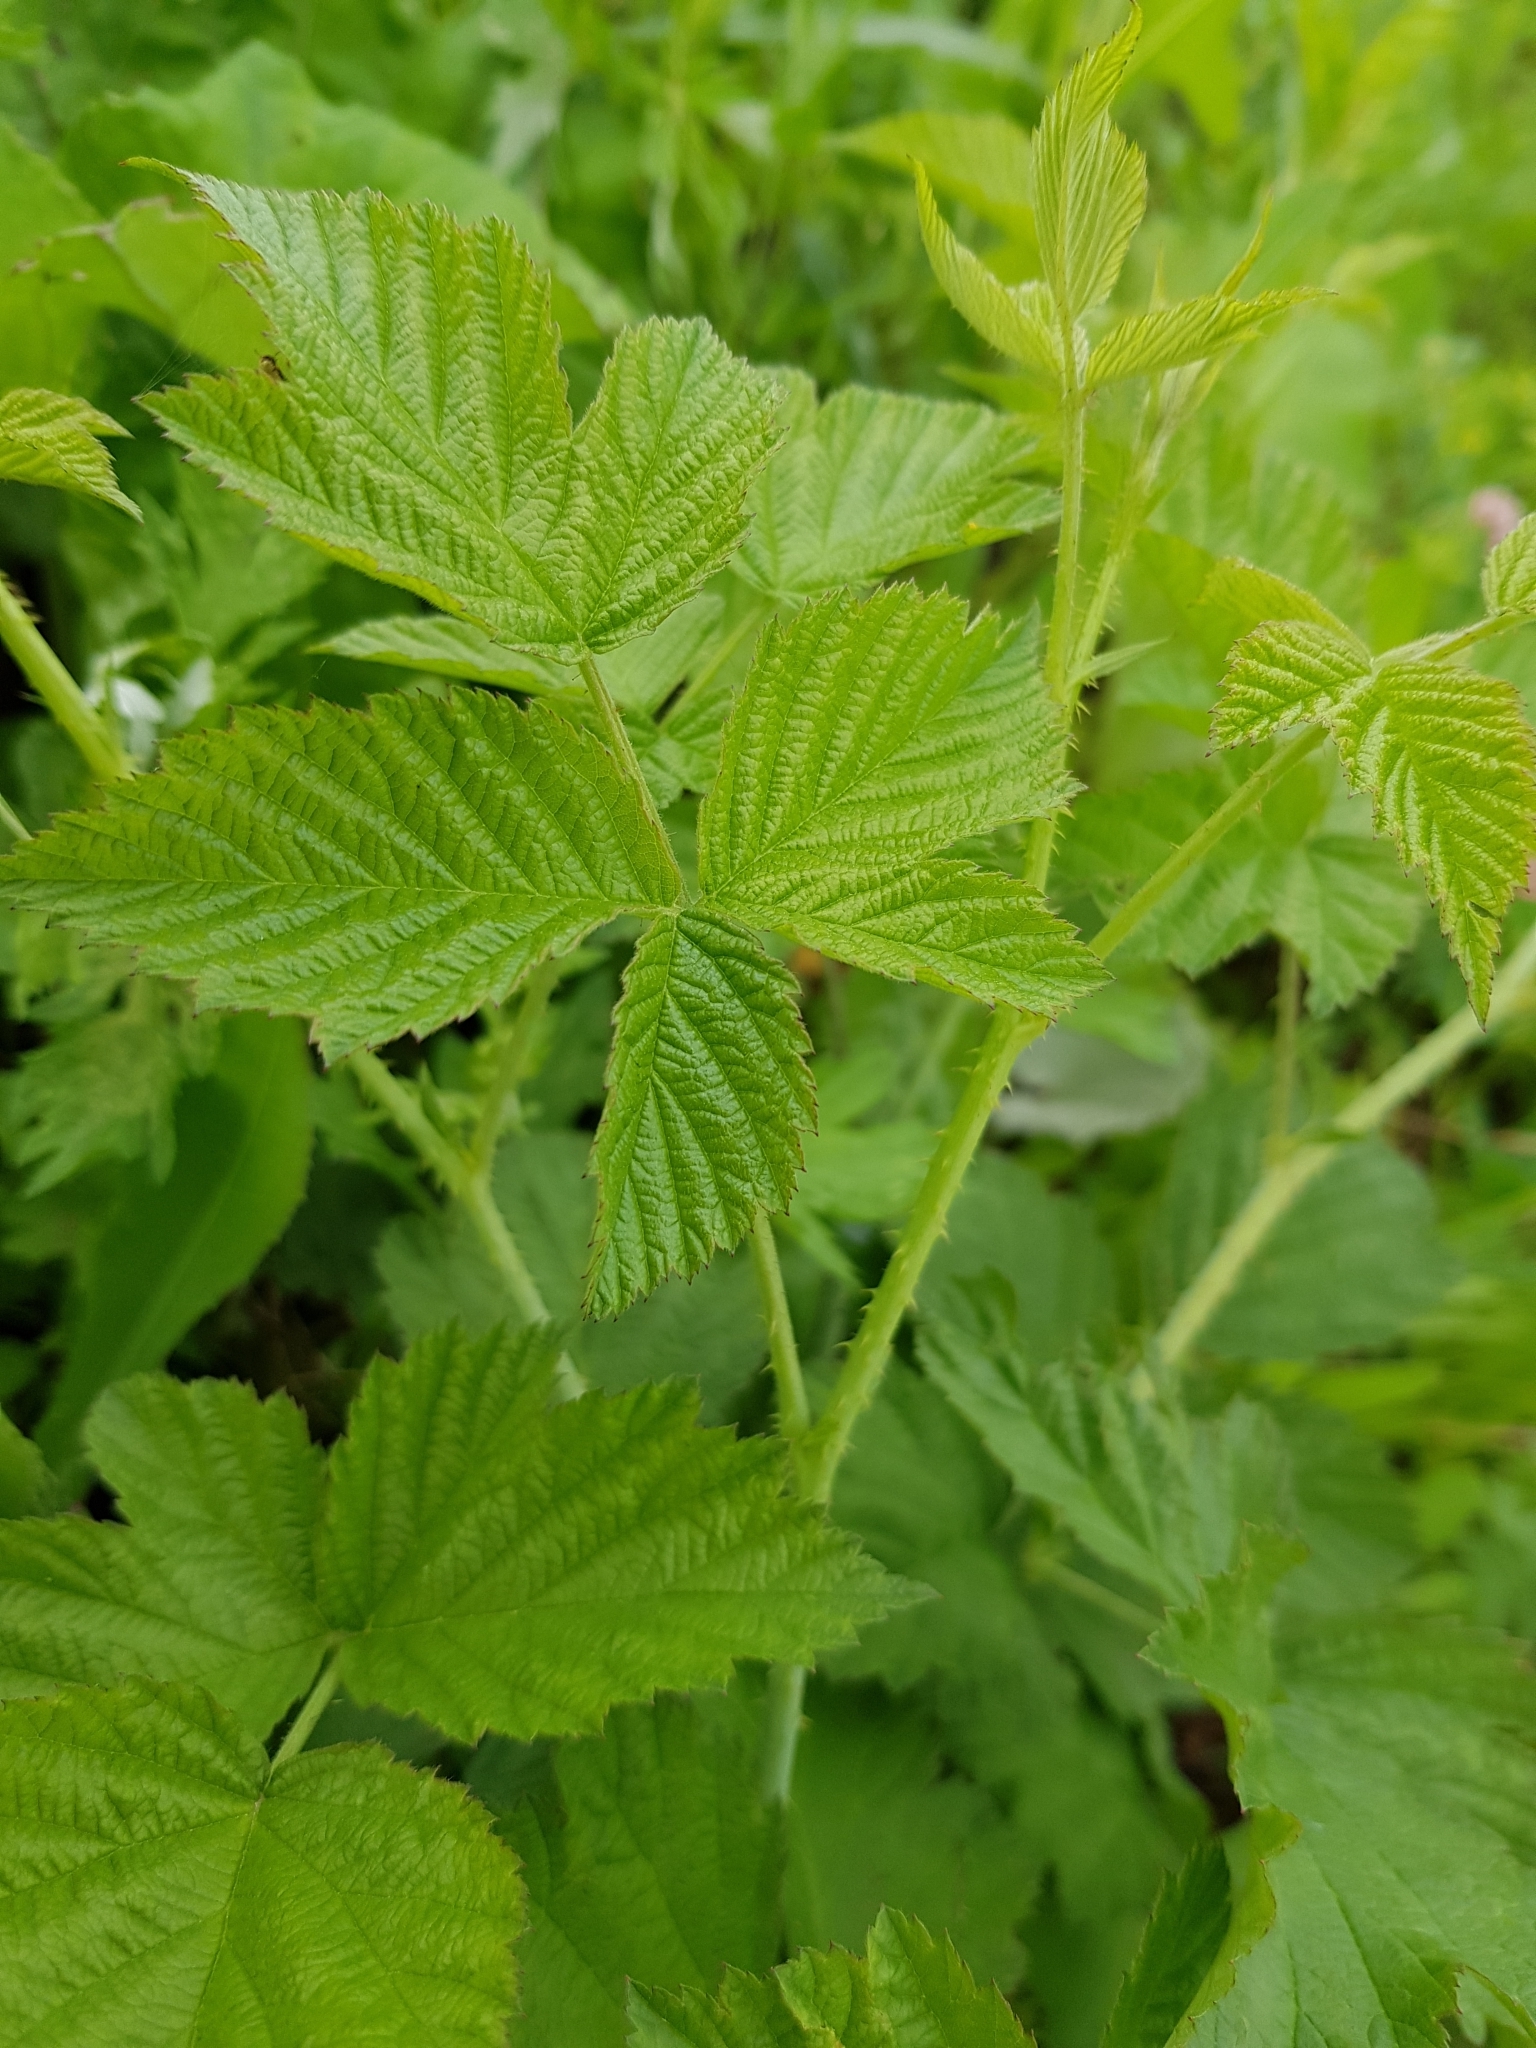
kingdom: Plantae
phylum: Tracheophyta
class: Magnoliopsida
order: Rosales
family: Rosaceae
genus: Rubus
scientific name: Rubus caesius
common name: Dewberry
